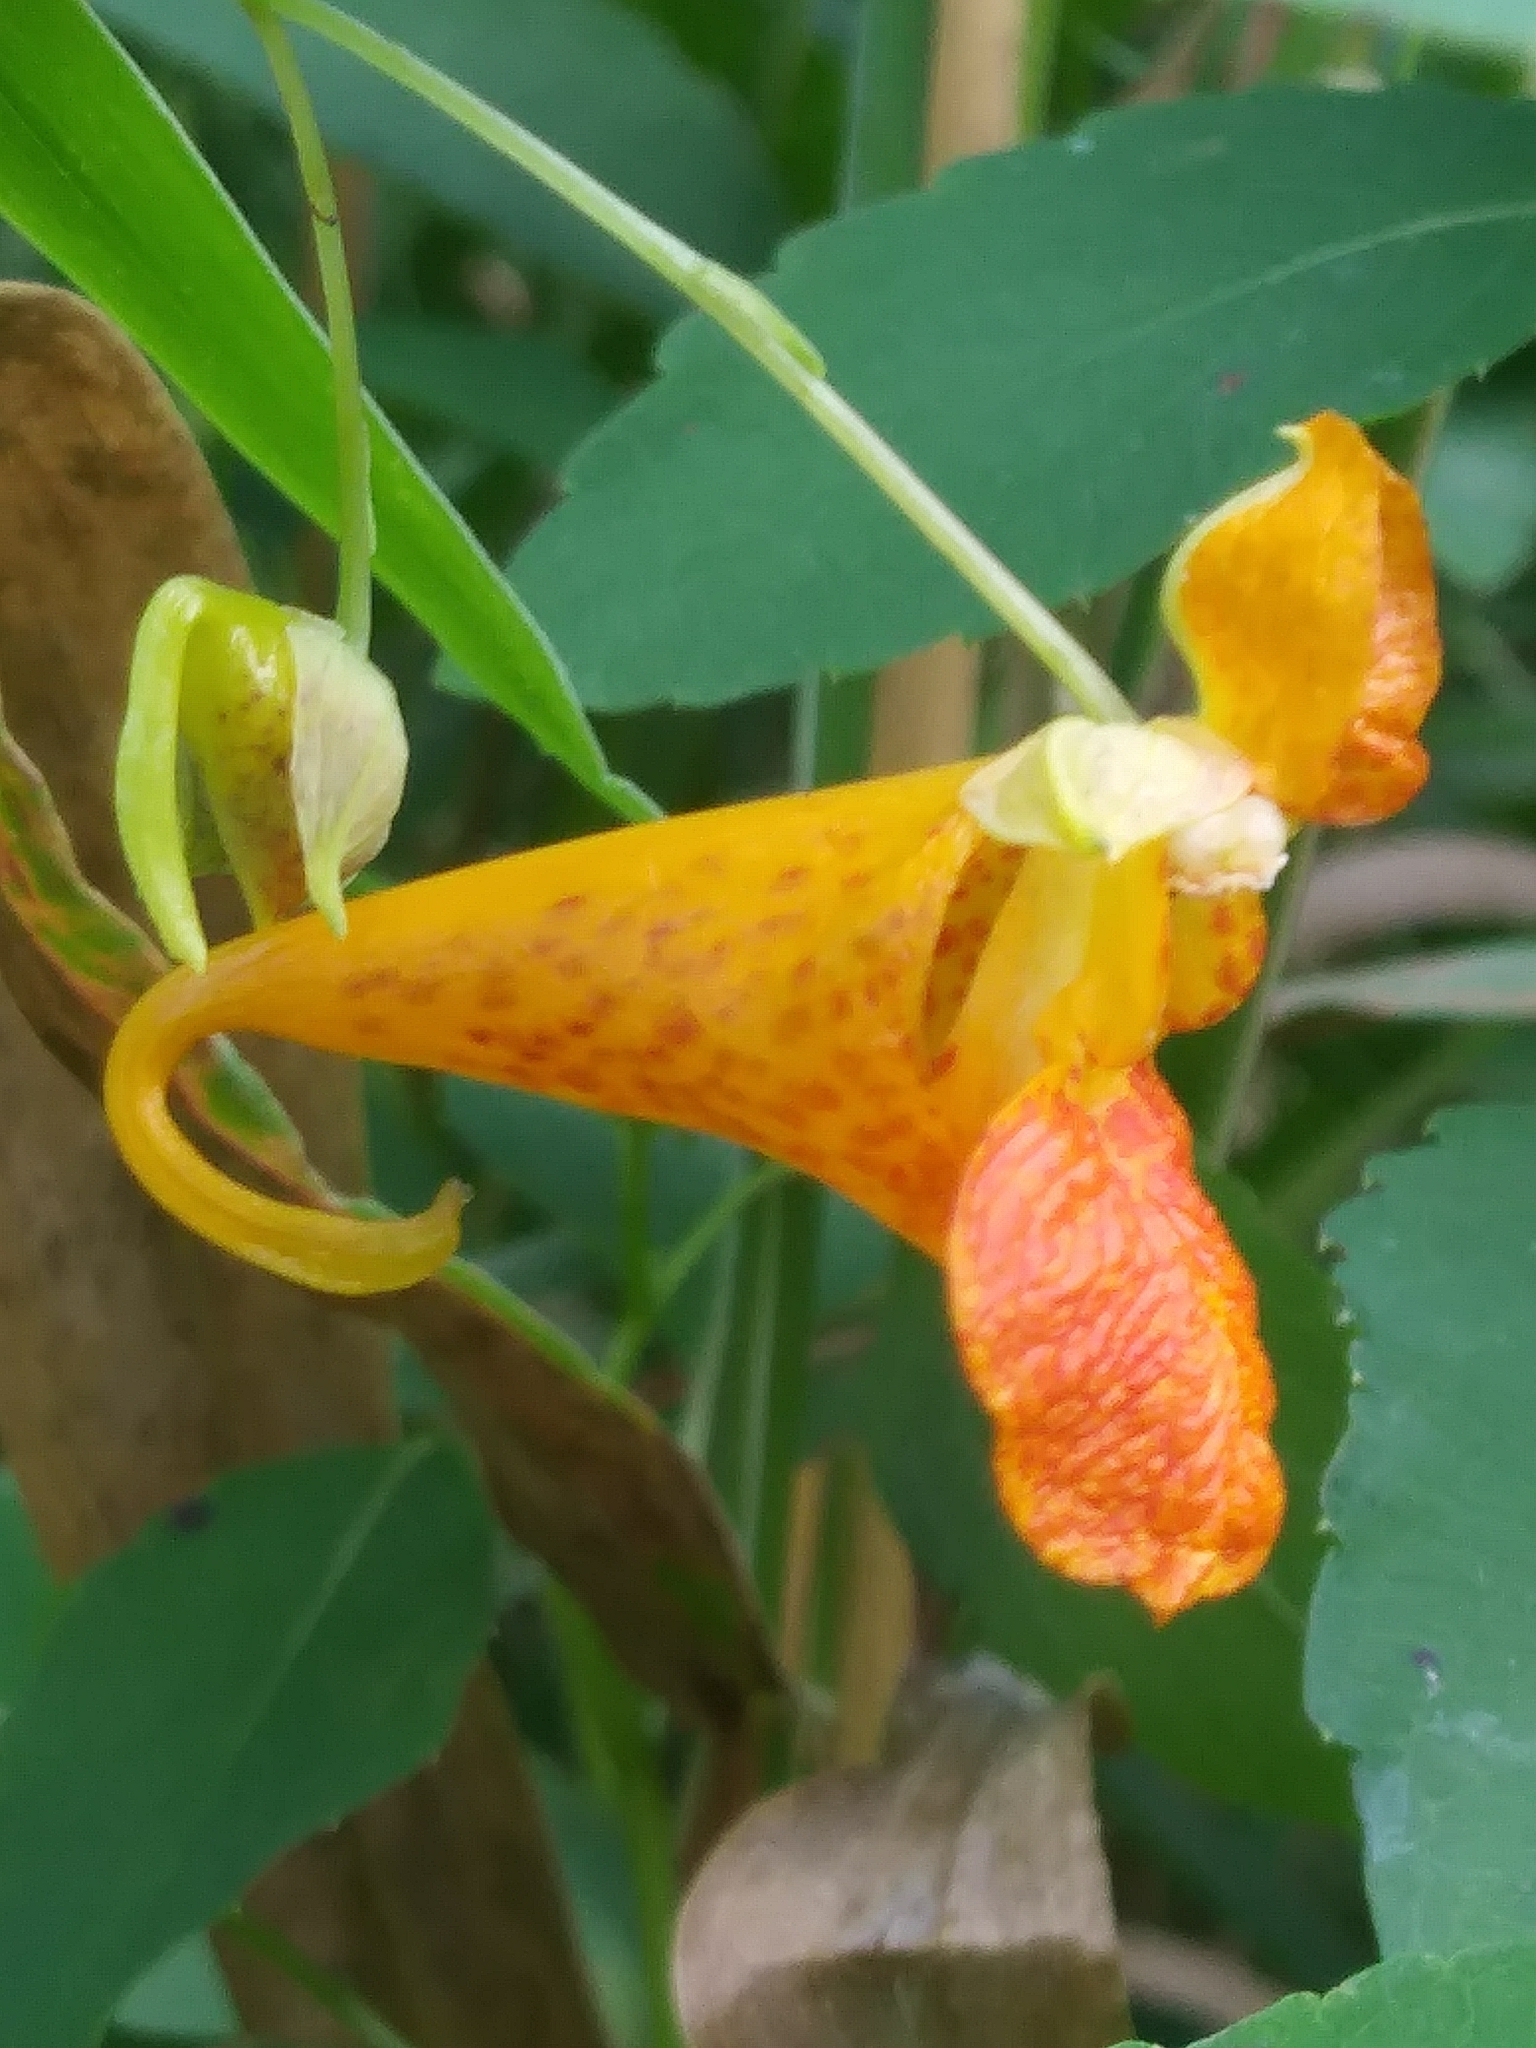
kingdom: Plantae
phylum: Tracheophyta
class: Magnoliopsida
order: Ericales
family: Balsaminaceae
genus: Impatiens
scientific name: Impatiens capensis
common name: Orange balsam
